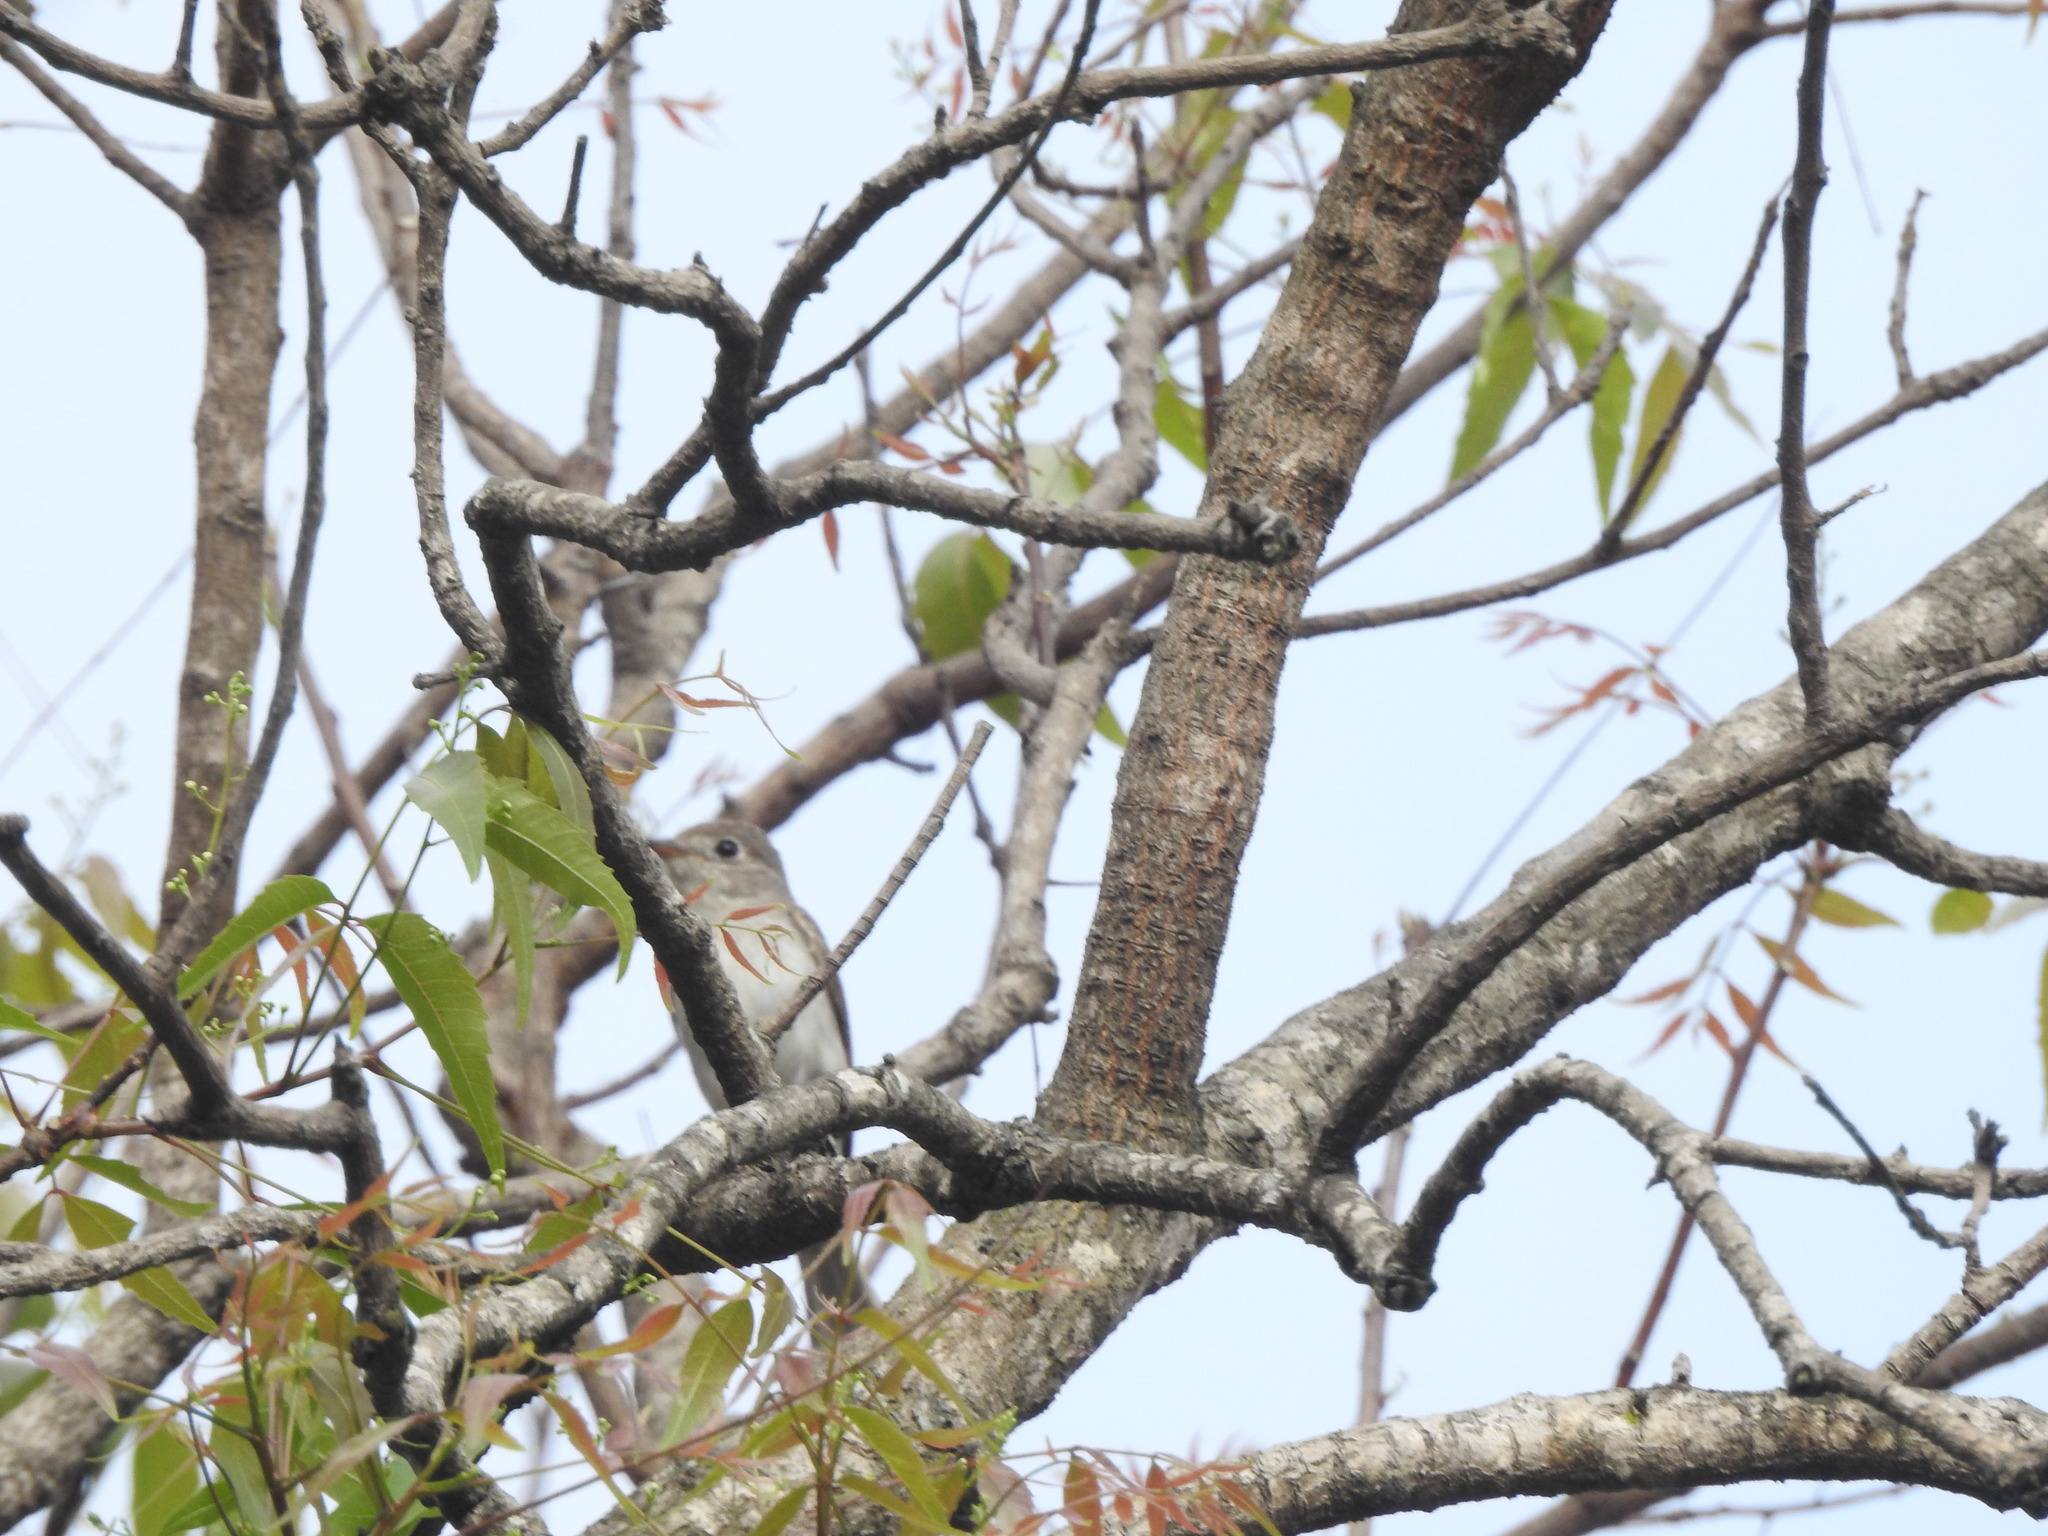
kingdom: Animalia
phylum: Chordata
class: Aves
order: Passeriformes
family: Muscicapidae
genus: Muscicapa
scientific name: Muscicapa latirostris
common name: Asian brown flycatcher
